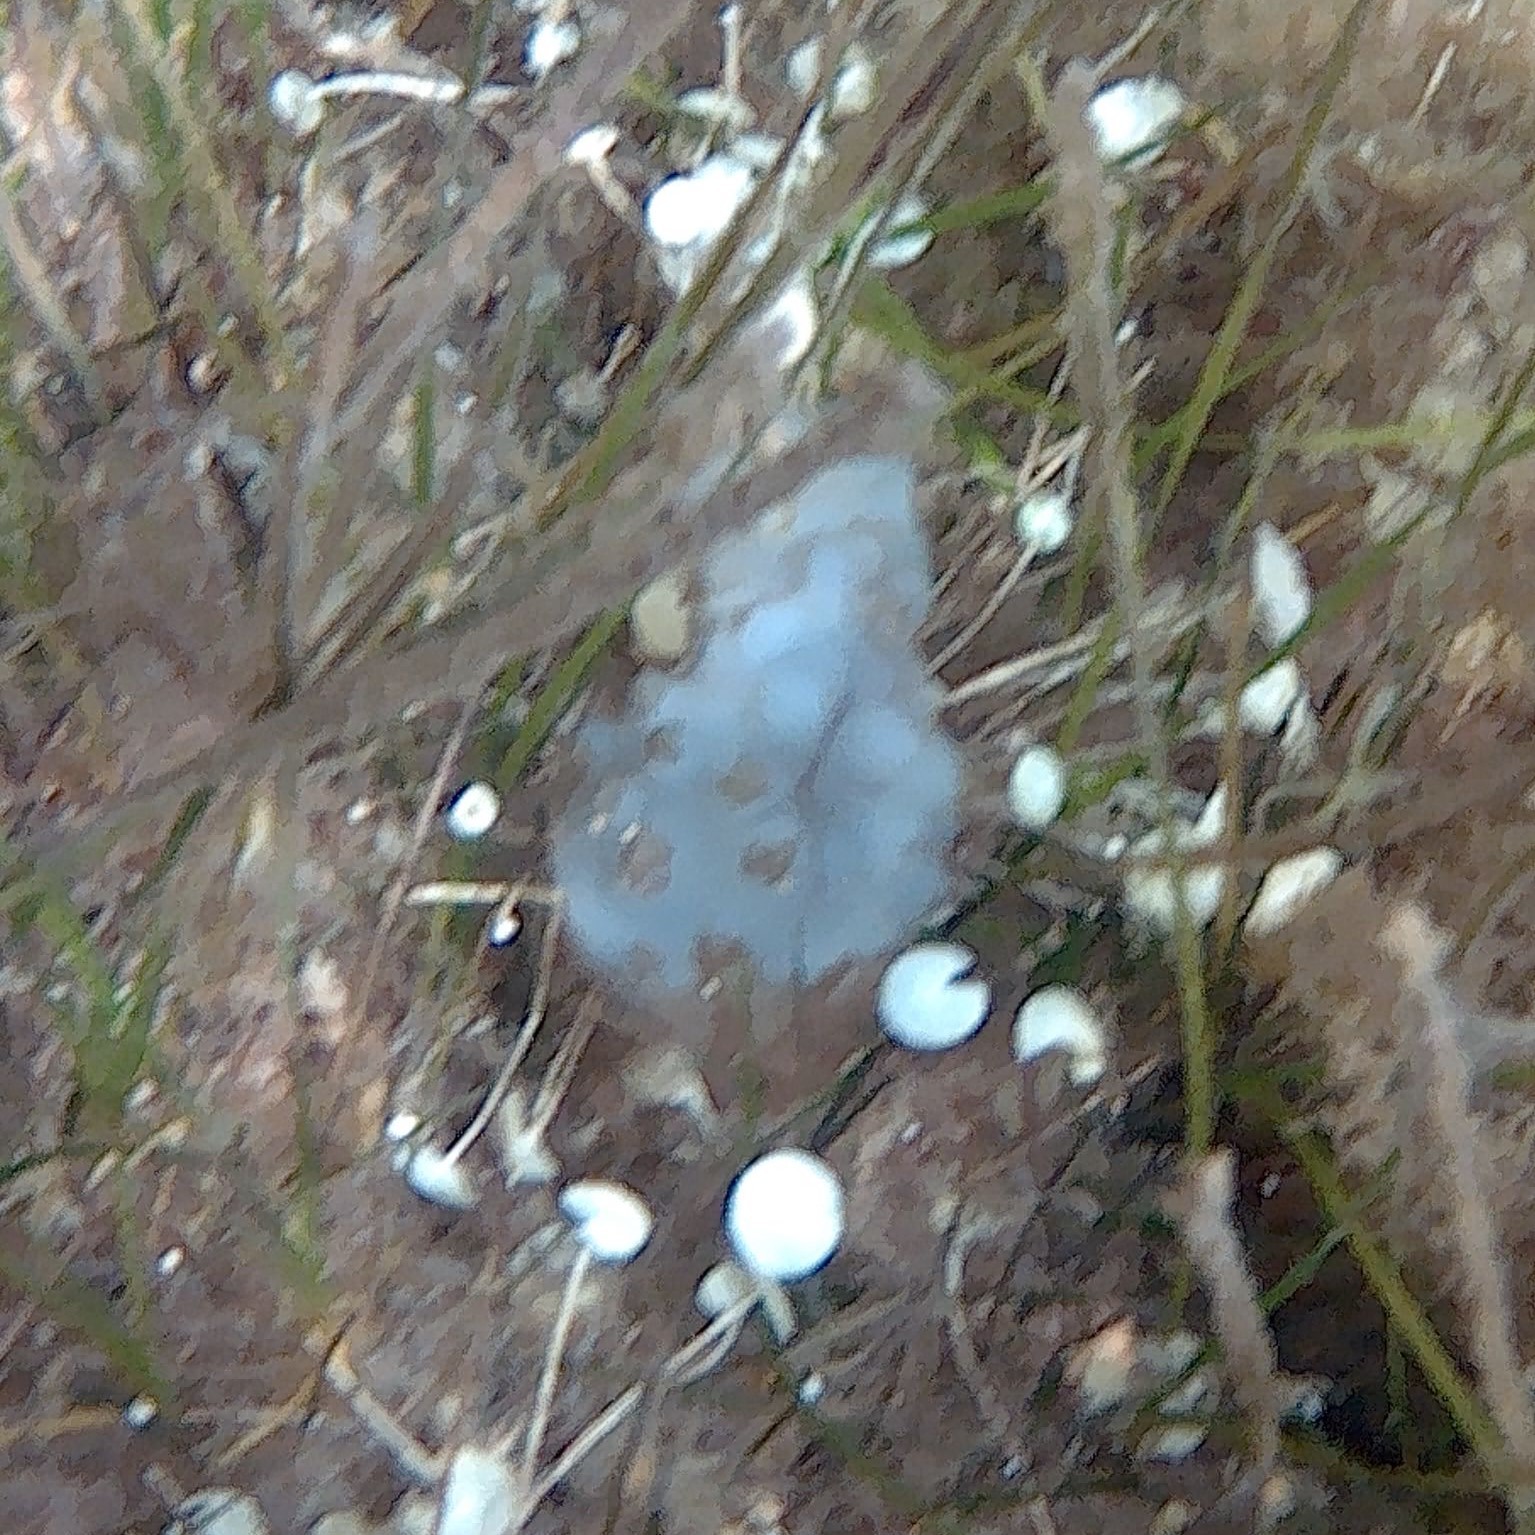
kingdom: Animalia
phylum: Chordata
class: Ascidiacea
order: Phlebobranchia
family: Ascidiidae
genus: Phallusia
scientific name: Phallusia mammillata
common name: Neptune's heart sea squirt
